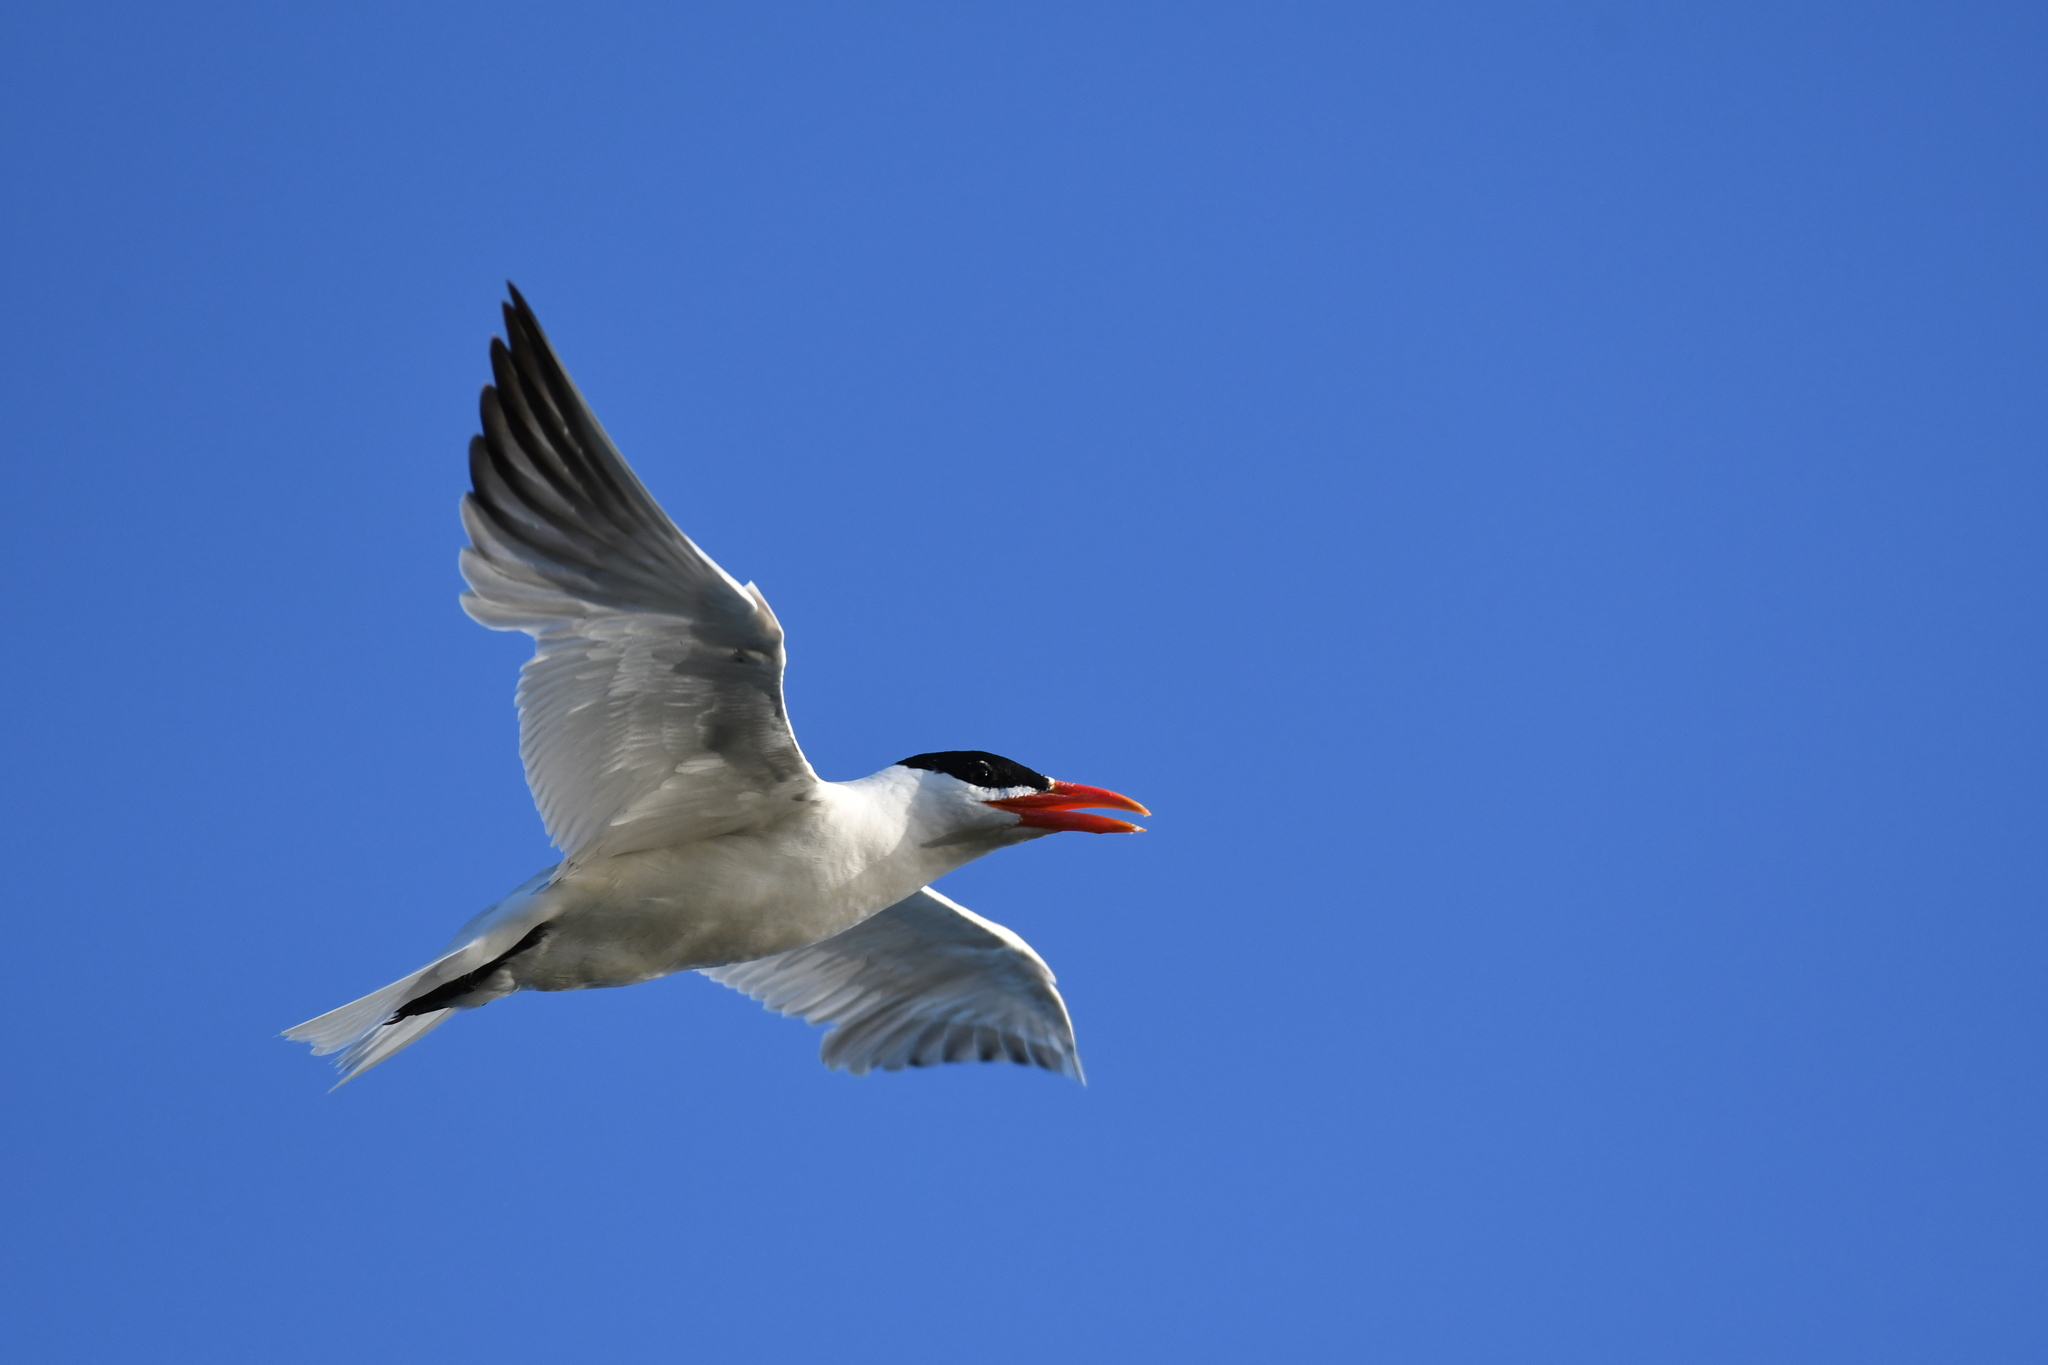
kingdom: Animalia
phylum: Chordata
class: Aves
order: Charadriiformes
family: Laridae
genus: Hydroprogne
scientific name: Hydroprogne caspia
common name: Caspian tern
